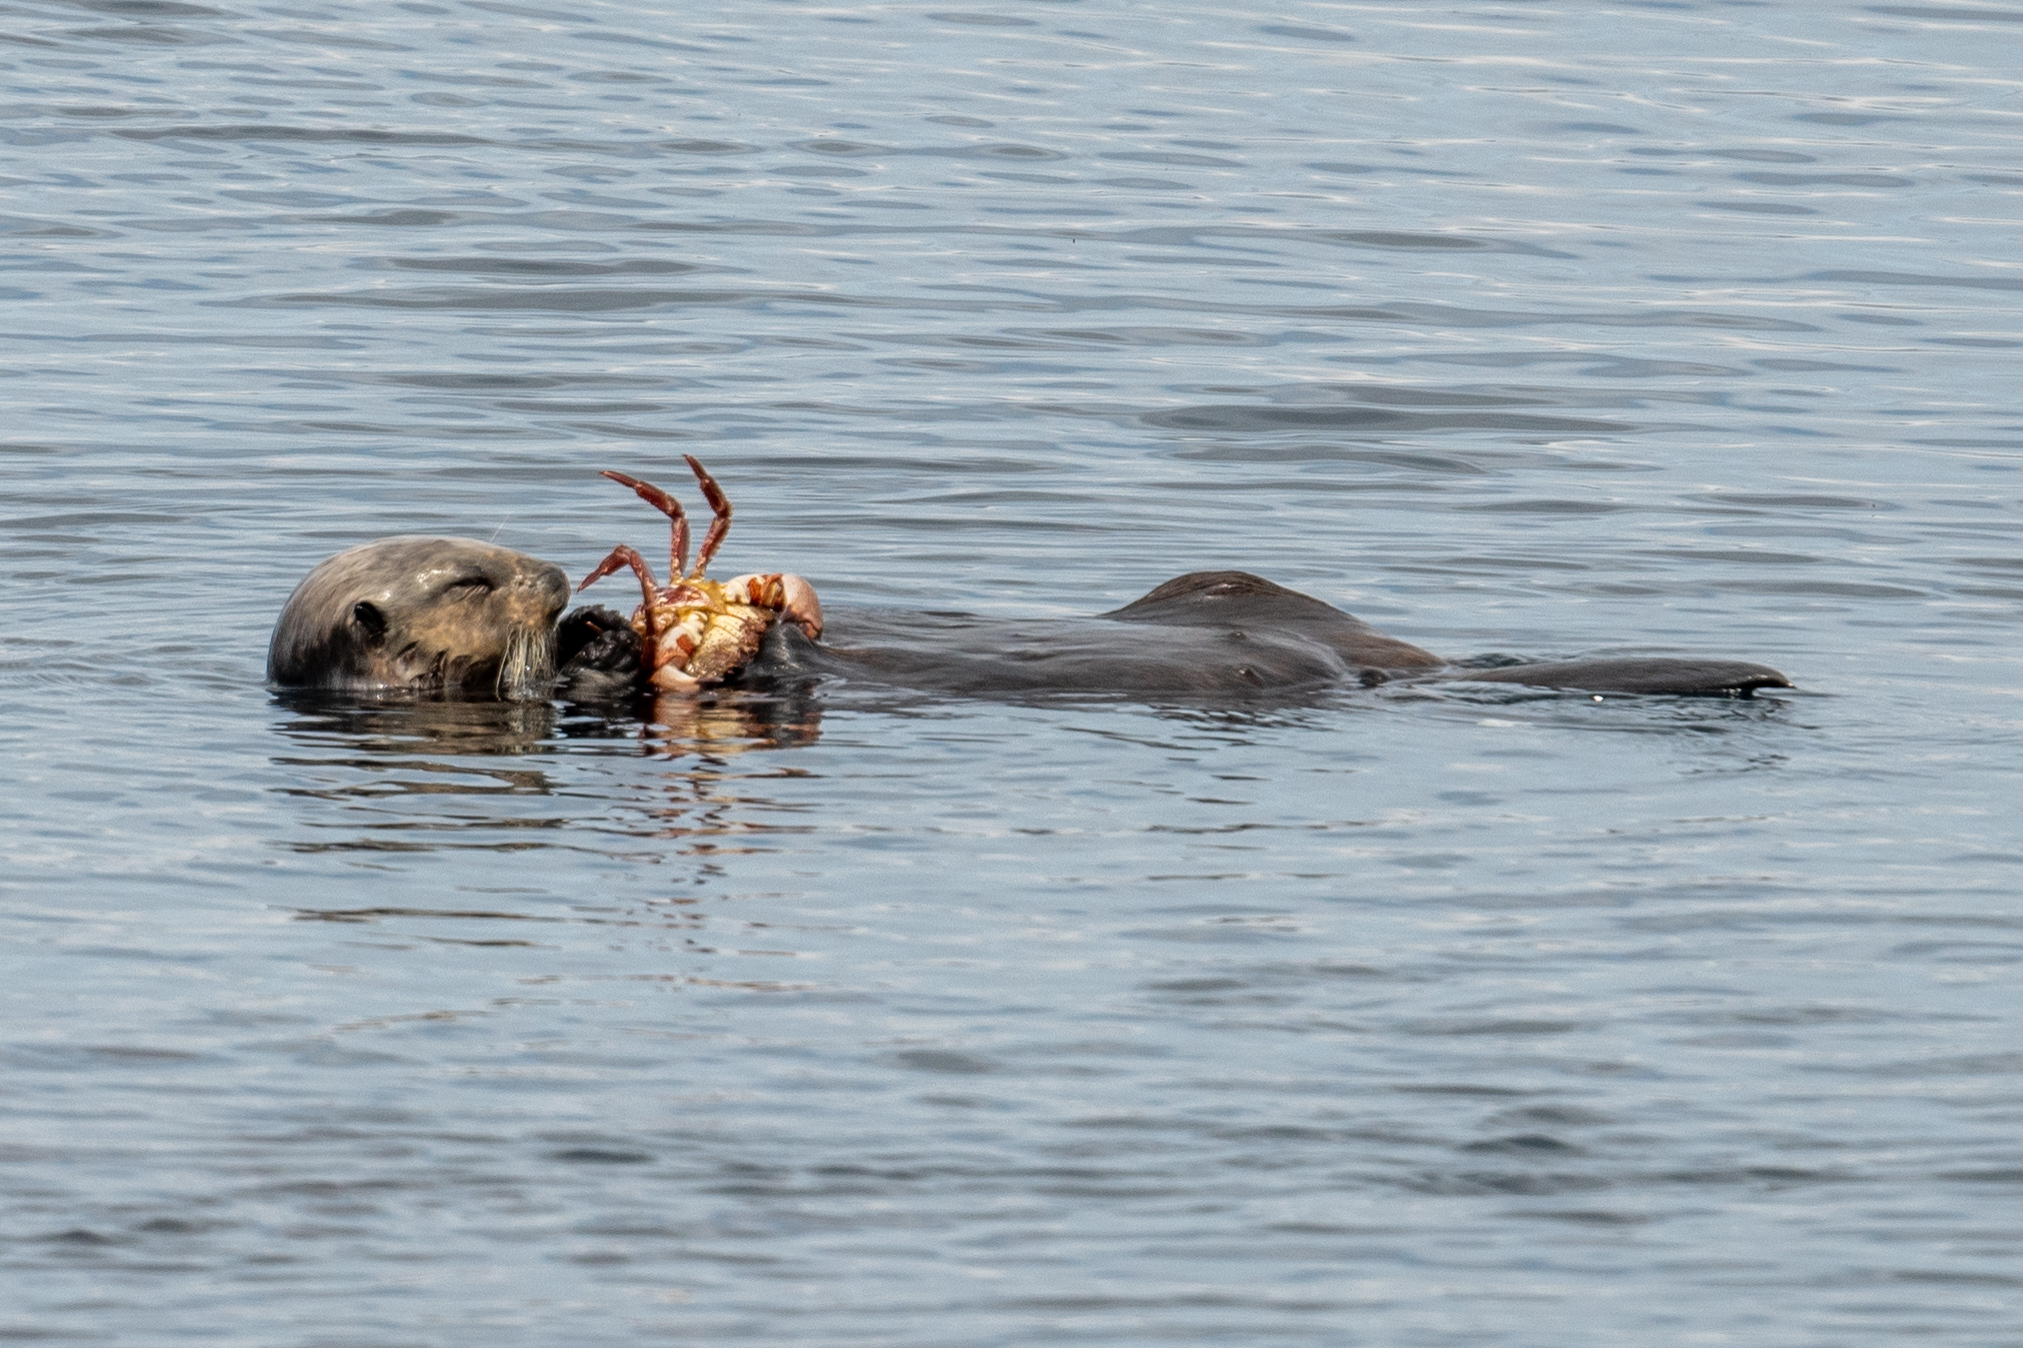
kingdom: Animalia
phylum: Chordata
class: Mammalia
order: Carnivora
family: Mustelidae
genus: Enhydra
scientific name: Enhydra lutris
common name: Sea otter
